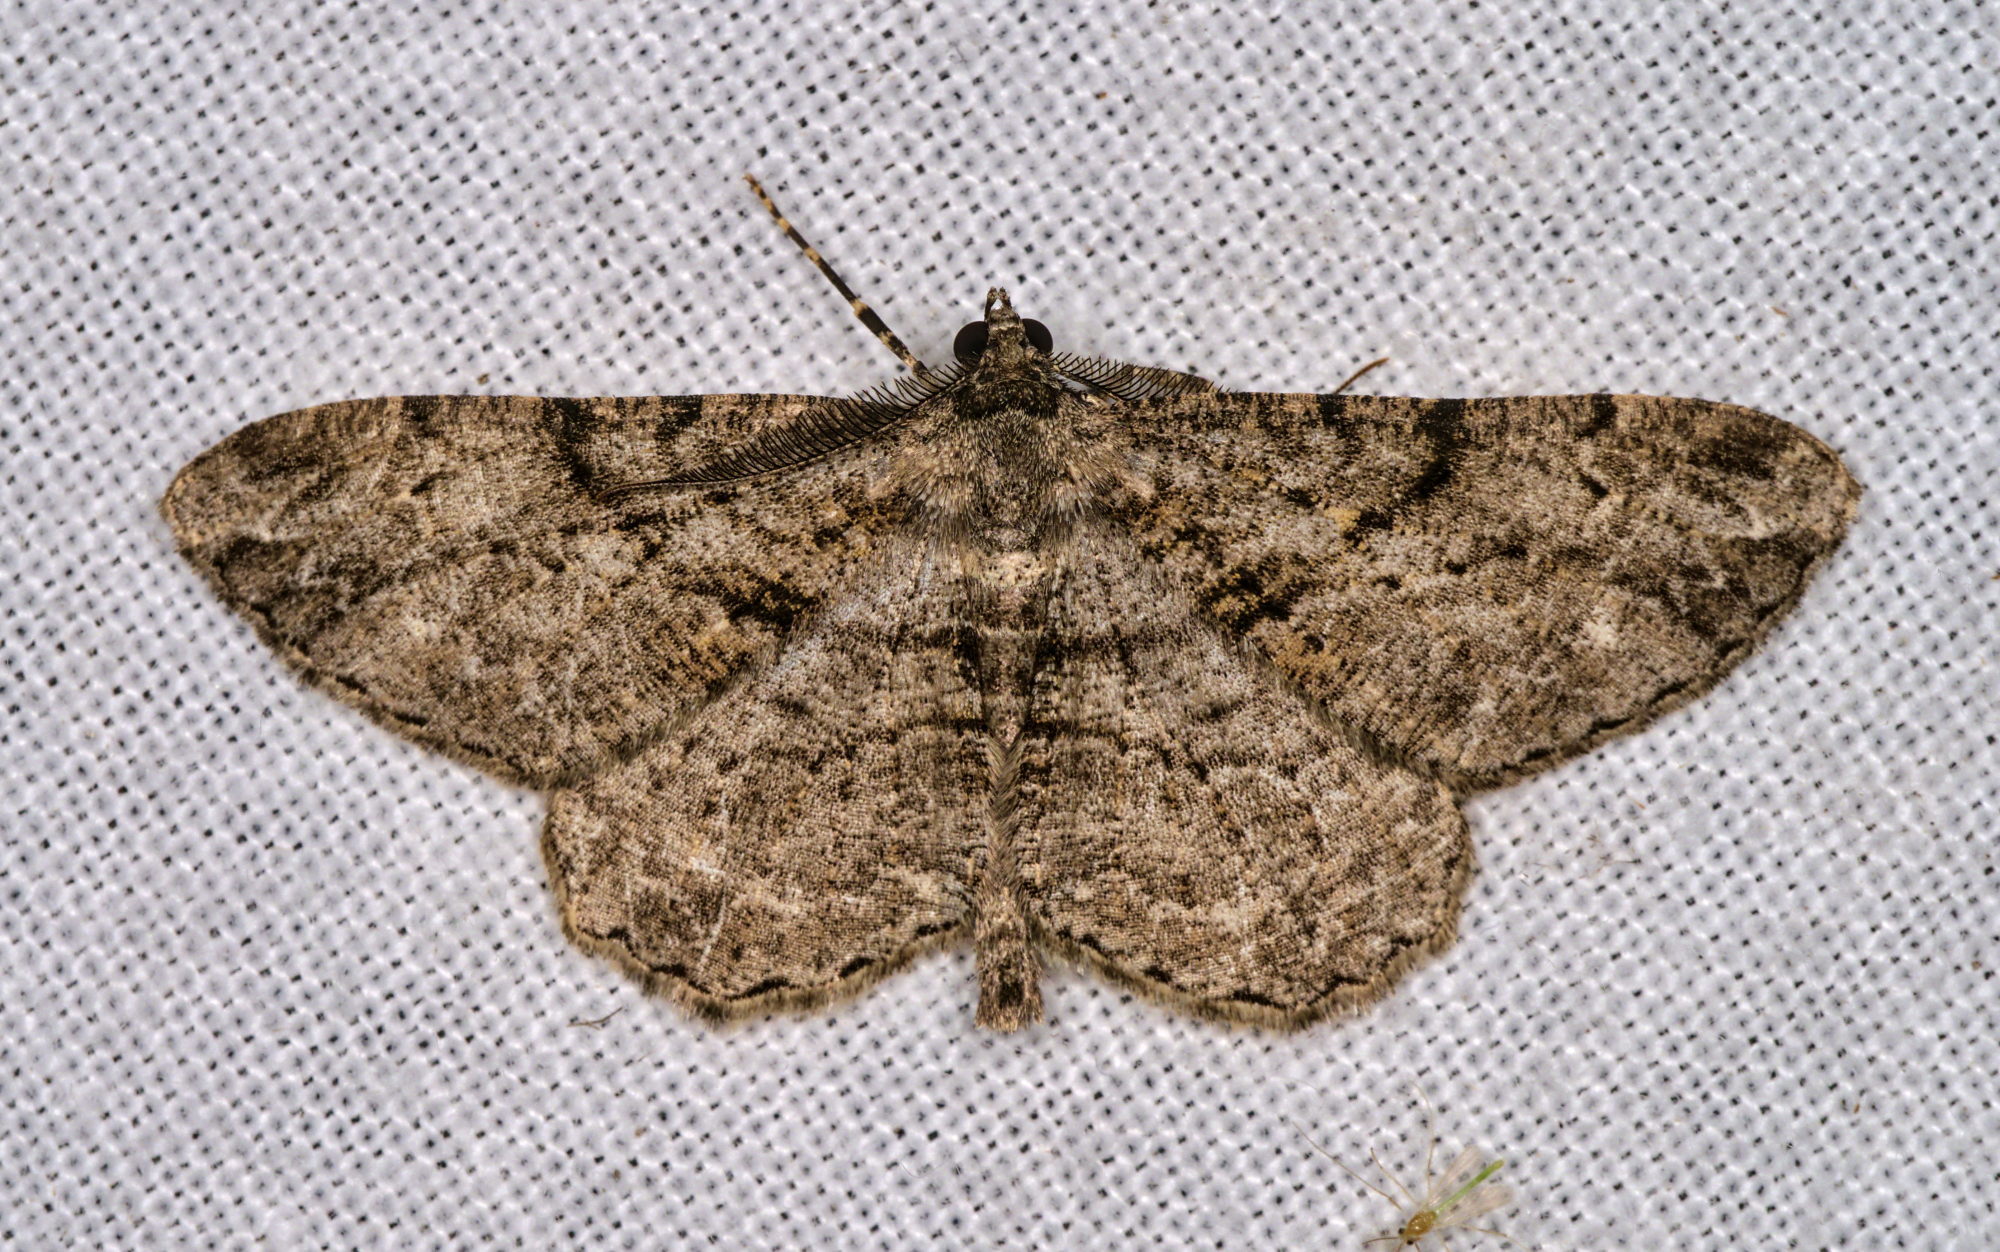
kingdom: Animalia
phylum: Arthropoda
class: Insecta
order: Lepidoptera
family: Geometridae
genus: Peribatodes
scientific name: Peribatodes rhomboidaria
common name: Willow beauty
